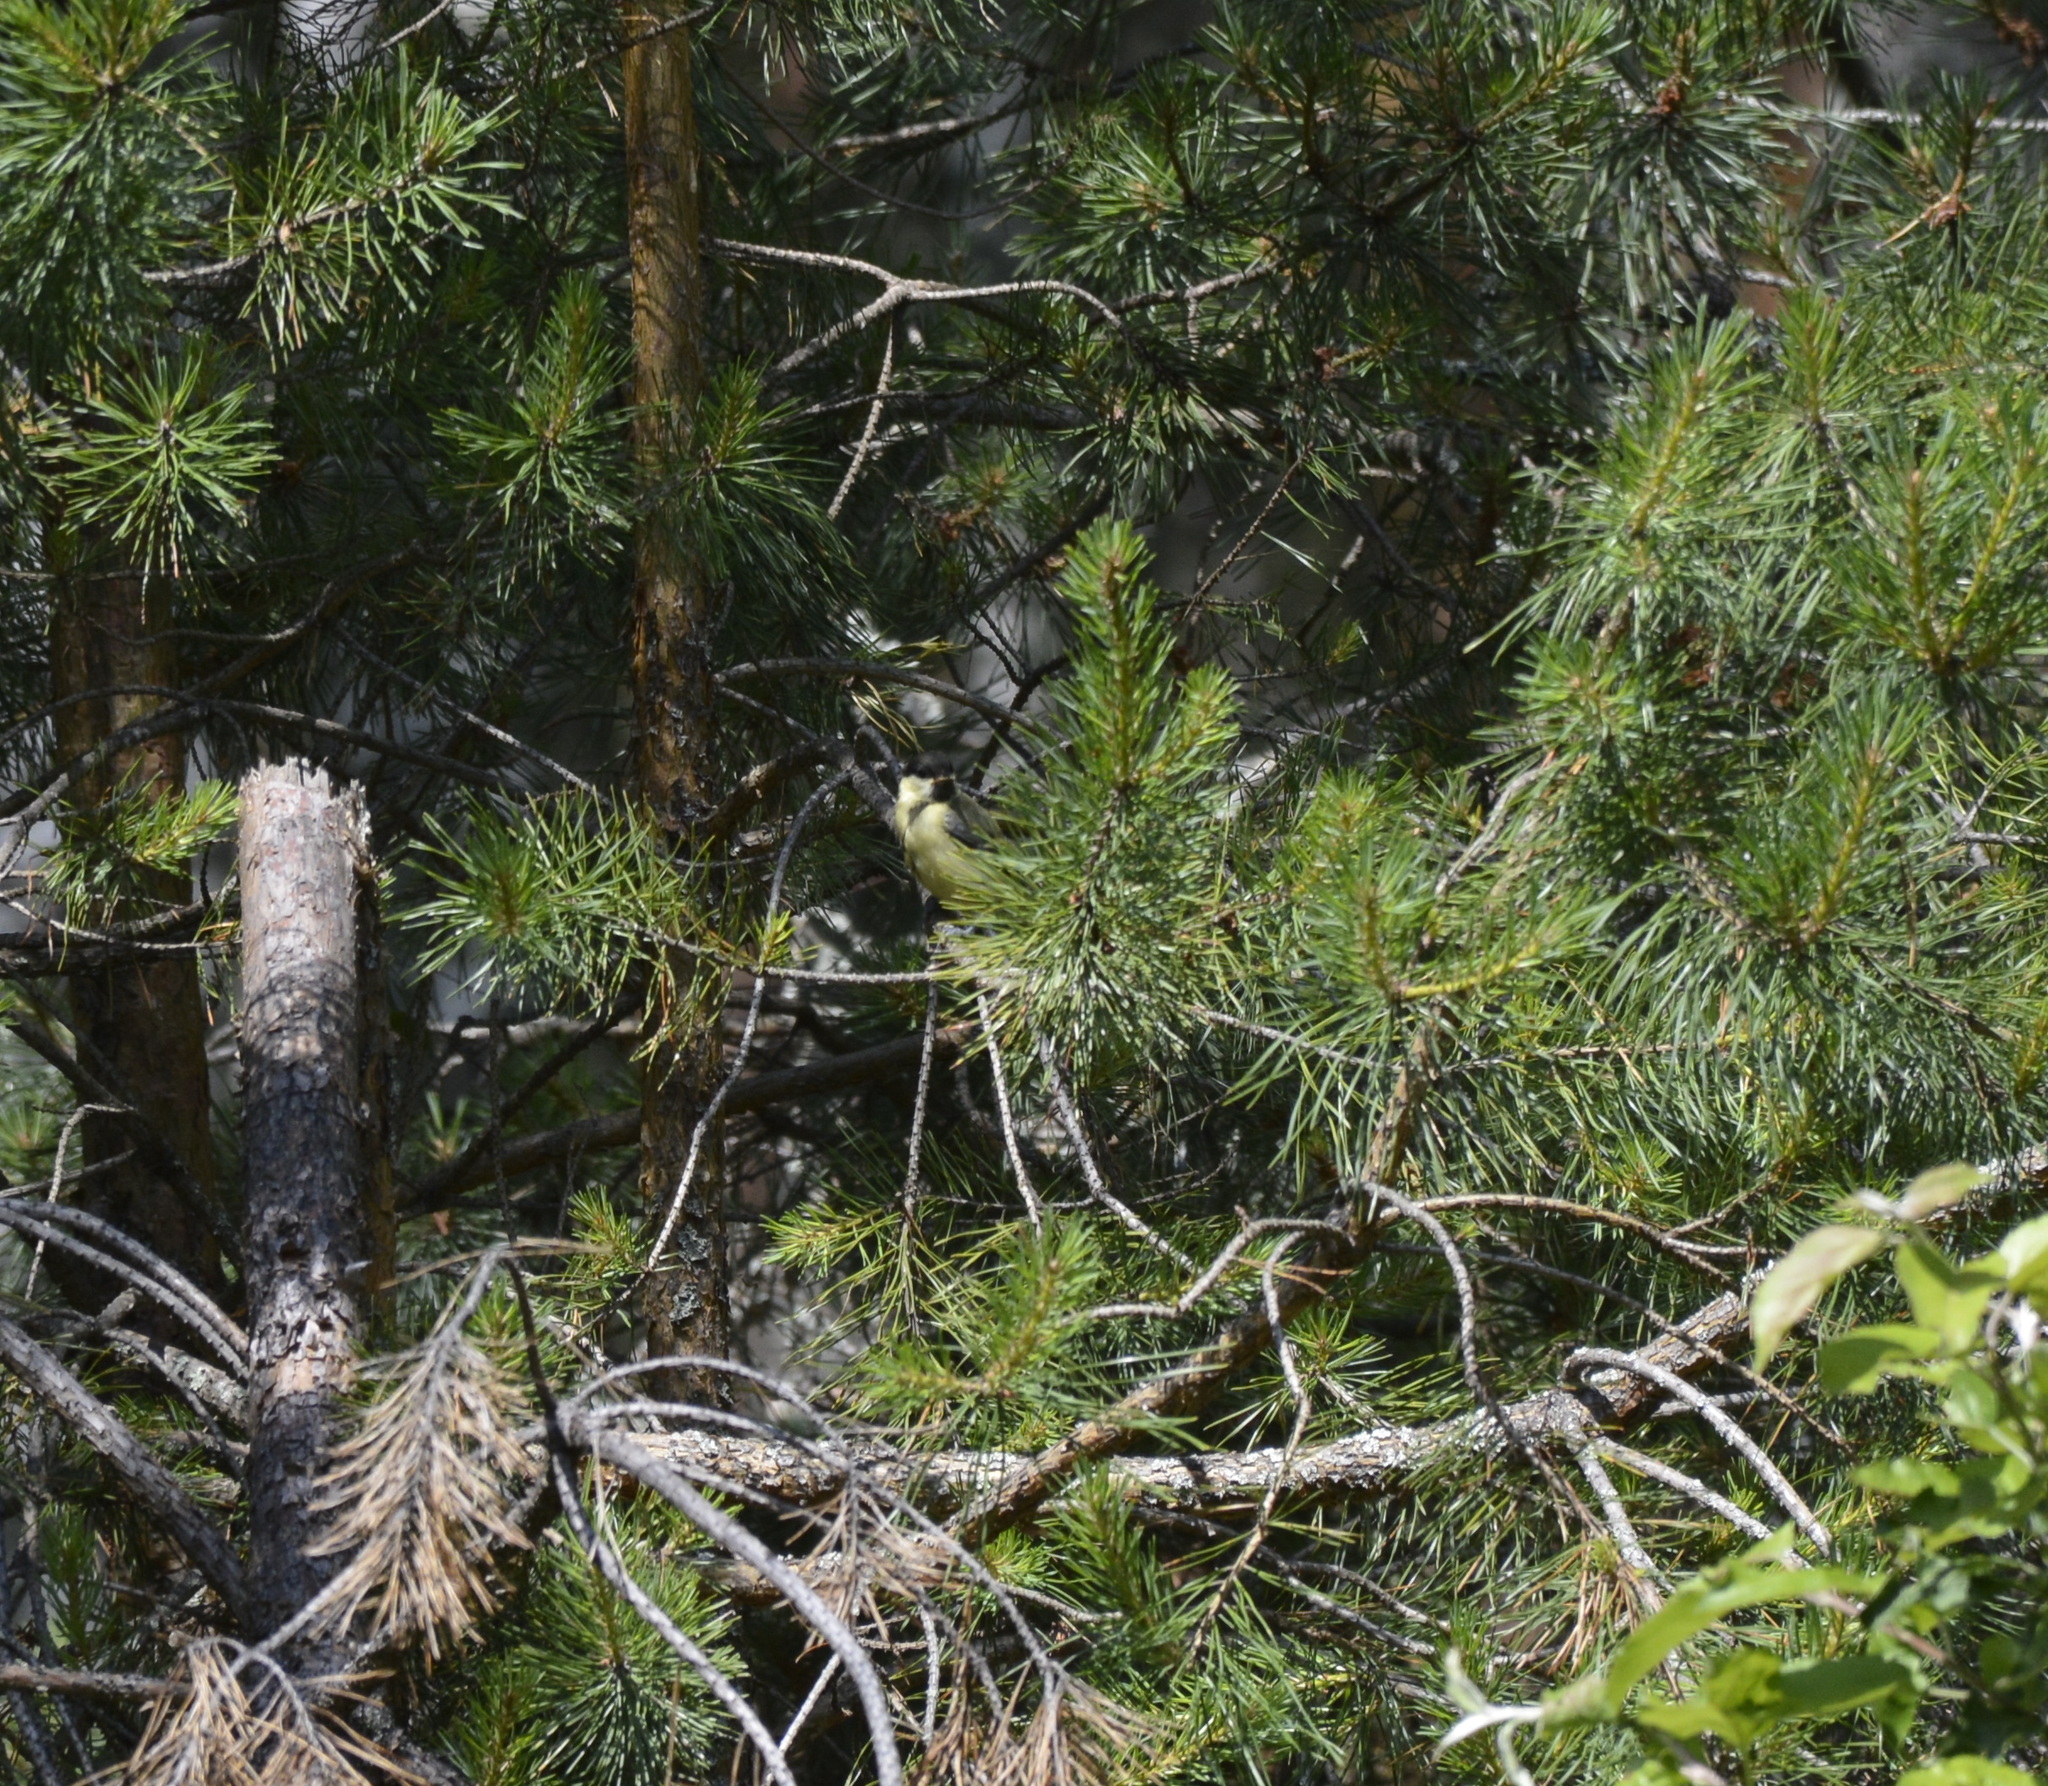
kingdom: Animalia
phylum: Chordata
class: Aves
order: Passeriformes
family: Paridae
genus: Parus
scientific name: Parus major
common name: Great tit
